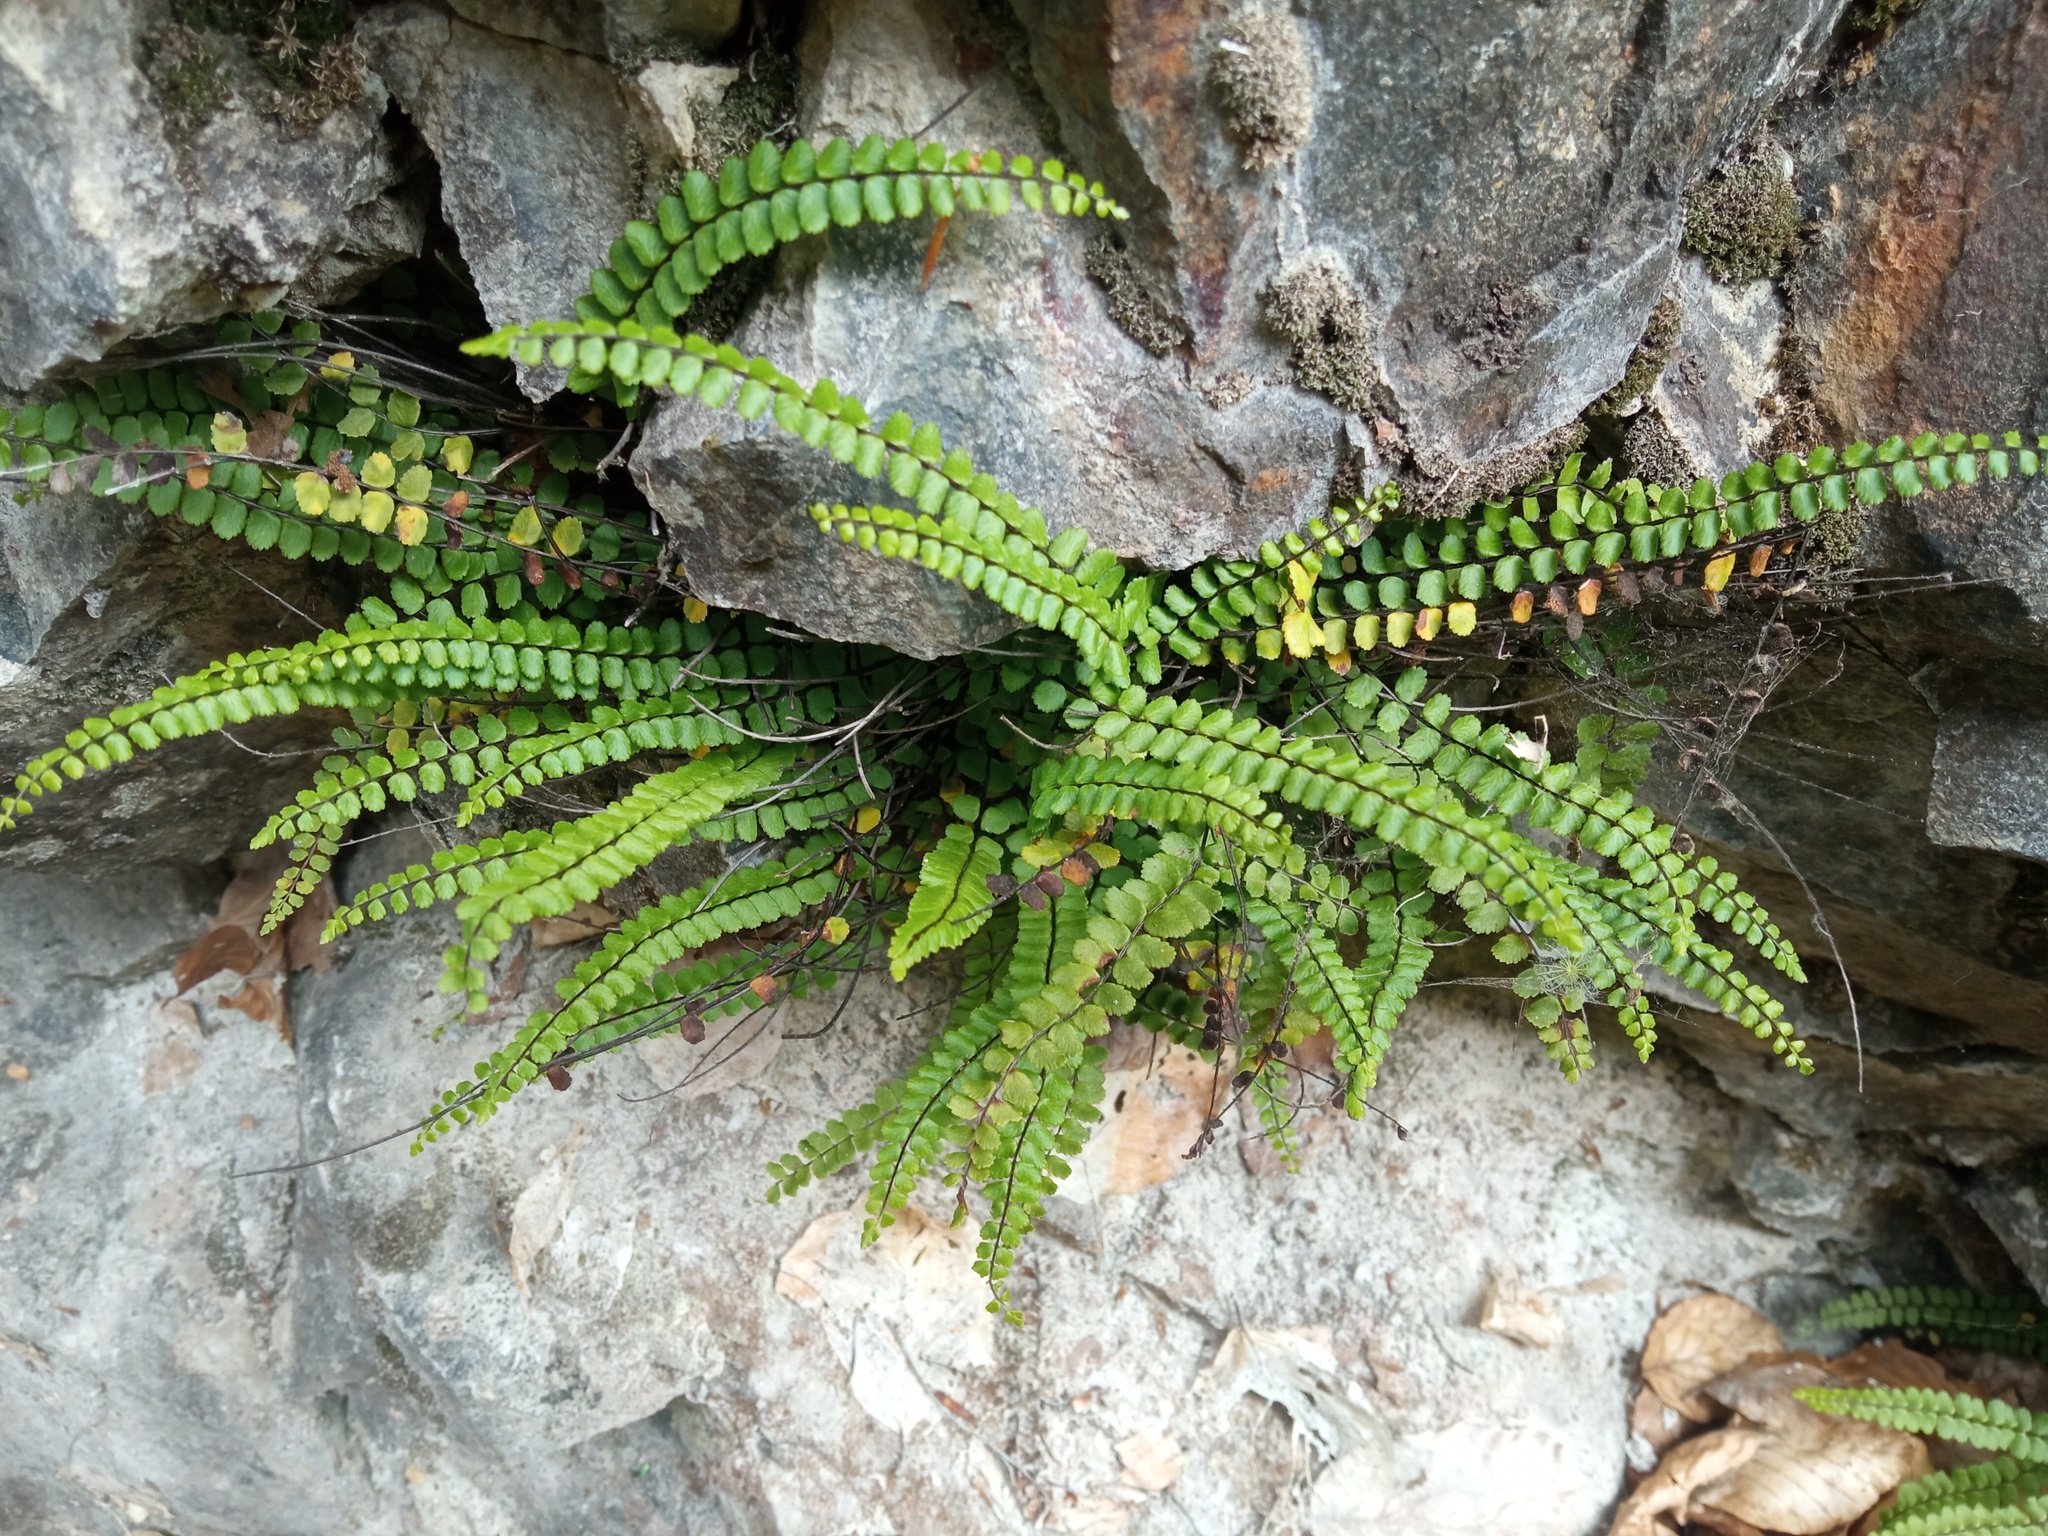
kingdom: Plantae
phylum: Tracheophyta
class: Polypodiopsida
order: Polypodiales
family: Aspleniaceae
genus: Asplenium
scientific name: Asplenium trichomanes
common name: Maidenhair spleenwort
